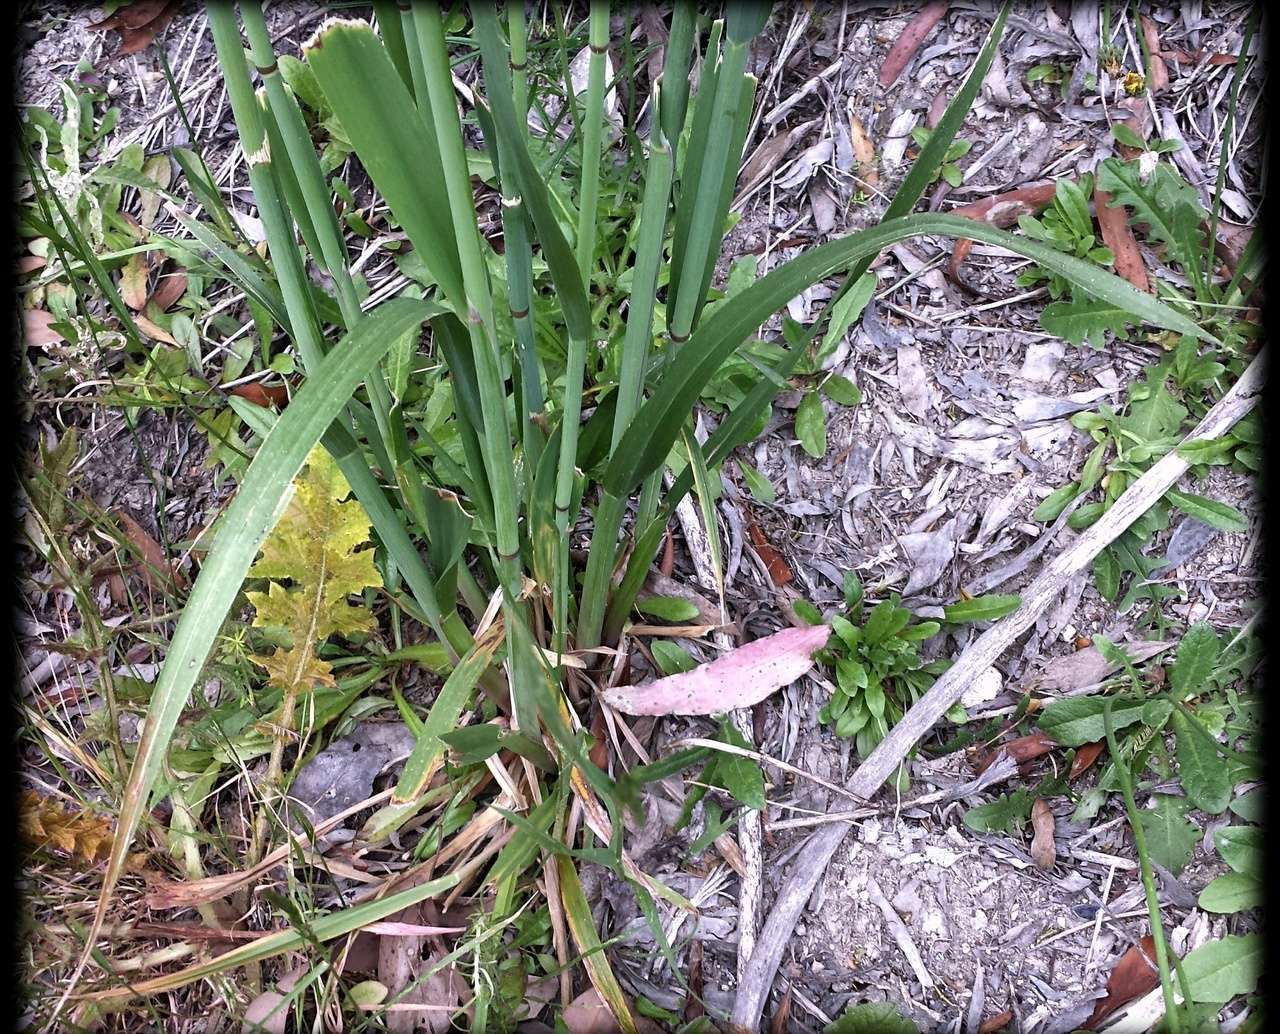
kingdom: Plantae
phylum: Tracheophyta
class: Liliopsida
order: Poales
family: Poaceae
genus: Dryopoa
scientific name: Dryopoa dives
